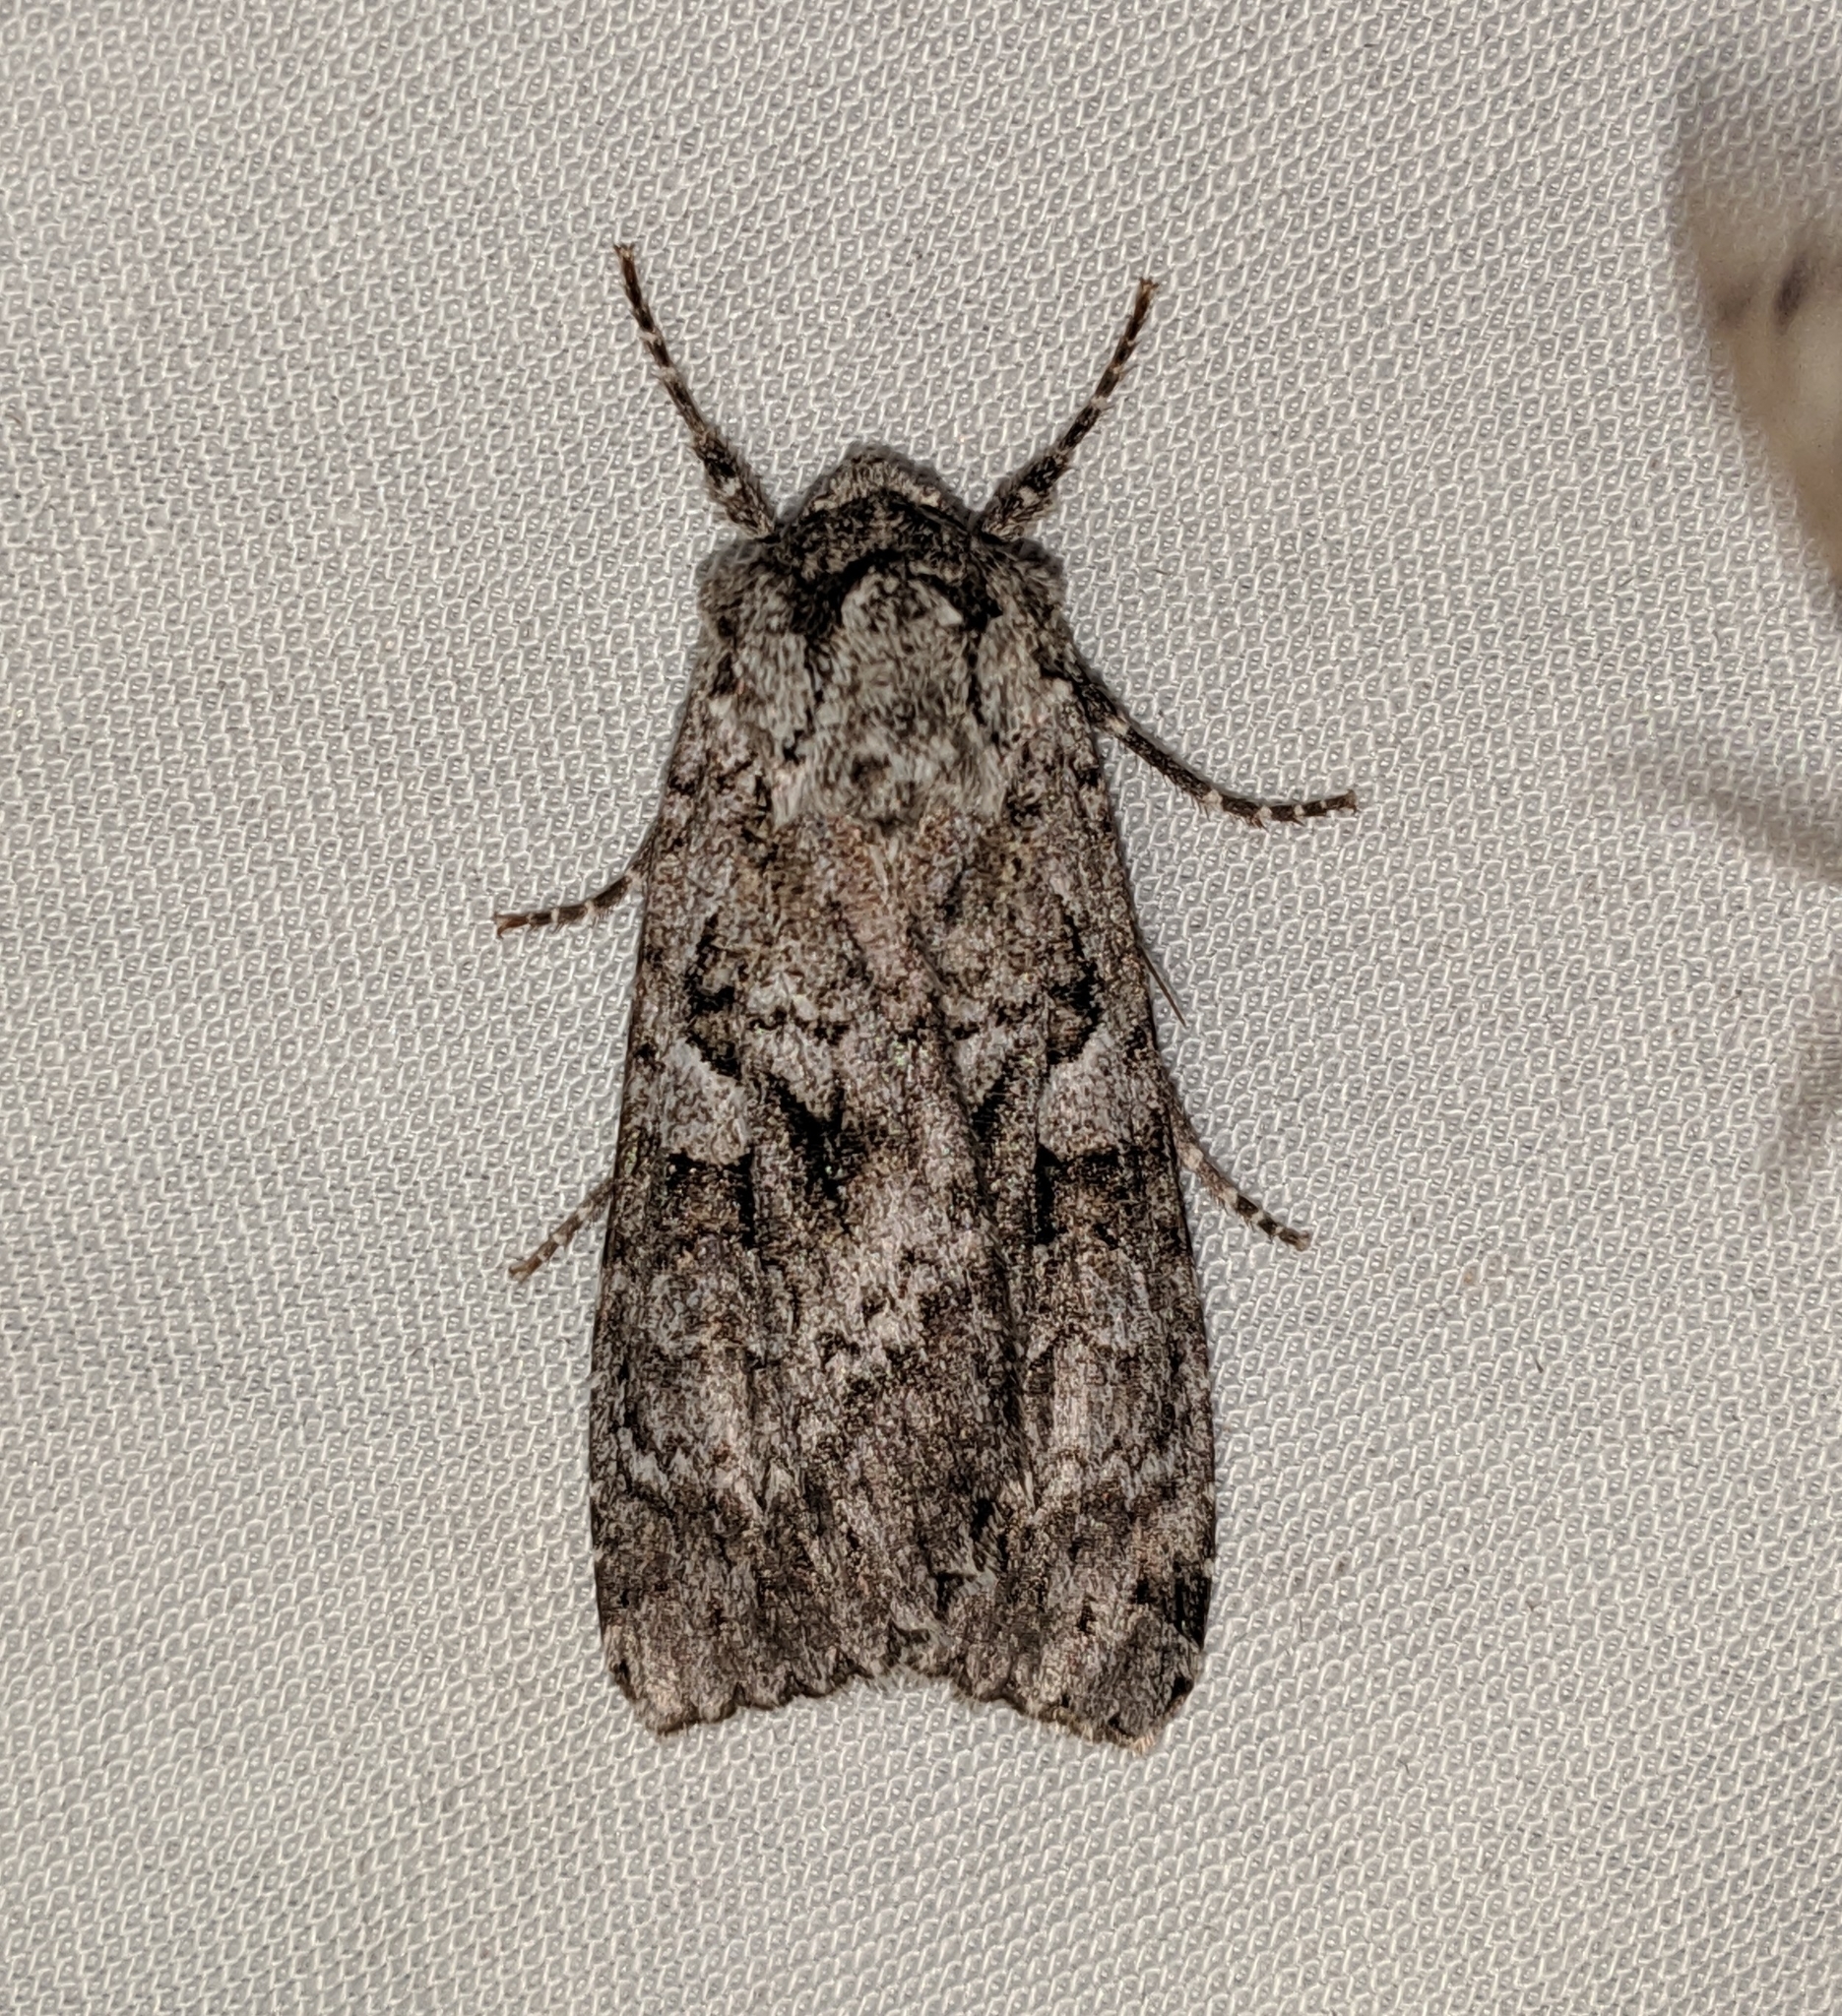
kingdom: Animalia
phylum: Arthropoda
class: Insecta
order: Lepidoptera
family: Noctuidae
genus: Eurois
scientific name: Eurois occulta
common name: Great brocade
